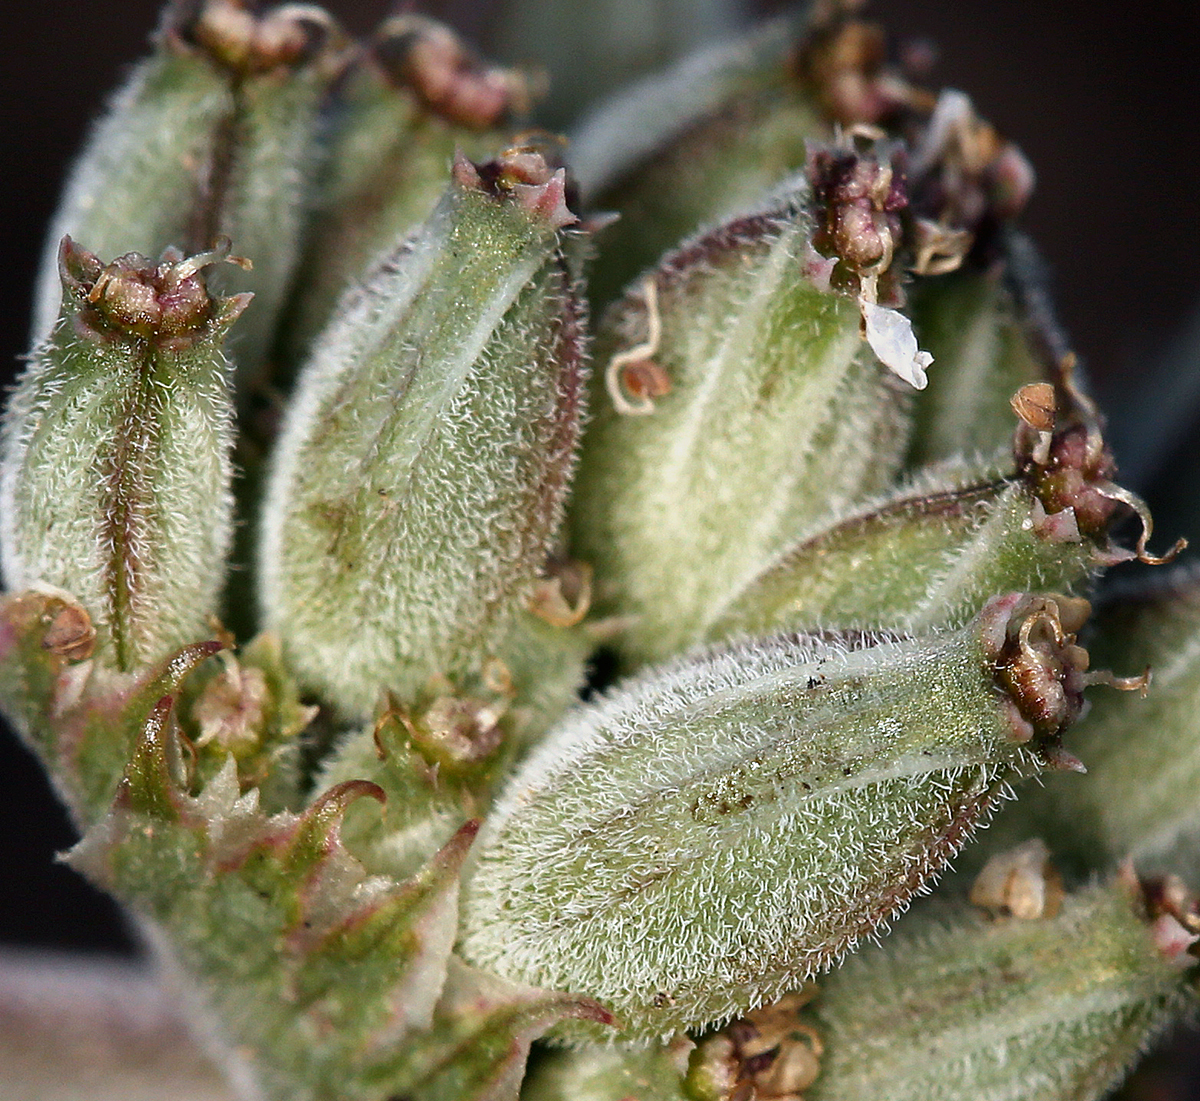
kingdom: Plantae
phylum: Tracheophyta
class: Magnoliopsida
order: Apiales
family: Apiaceae
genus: Lomatium
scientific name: Lomatium nevadense
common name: Nevada lomatium
